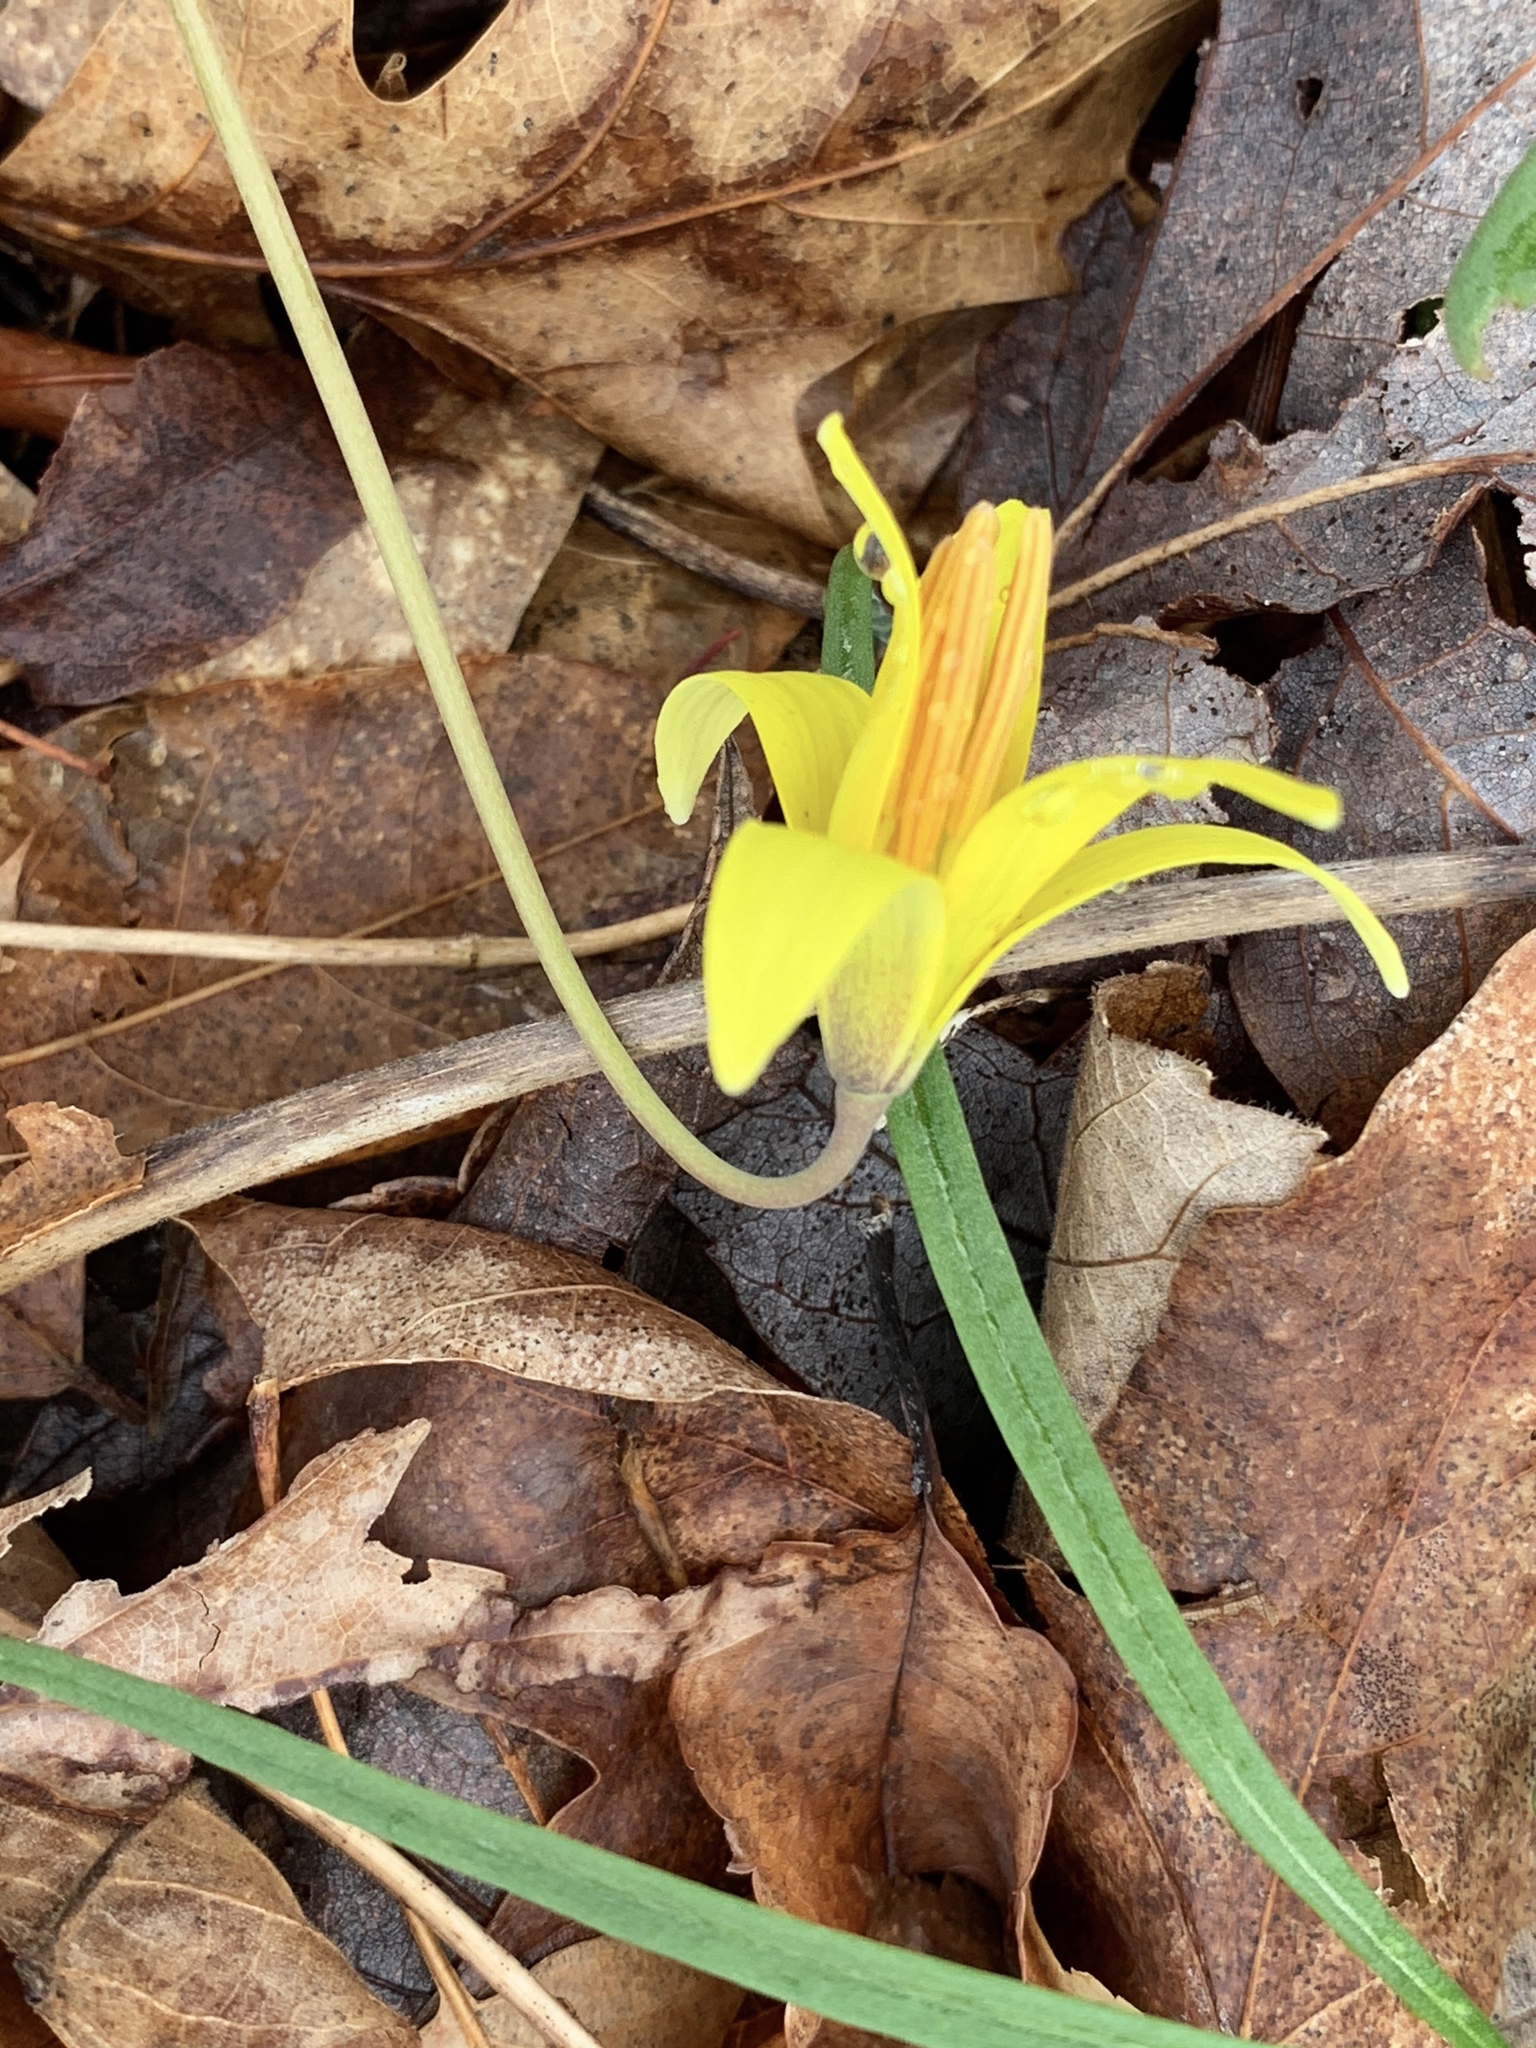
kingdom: Plantae
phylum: Tracheophyta
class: Liliopsida
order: Liliales
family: Liliaceae
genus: Erythronium
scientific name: Erythronium americanum
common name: Yellow adder's-tongue
